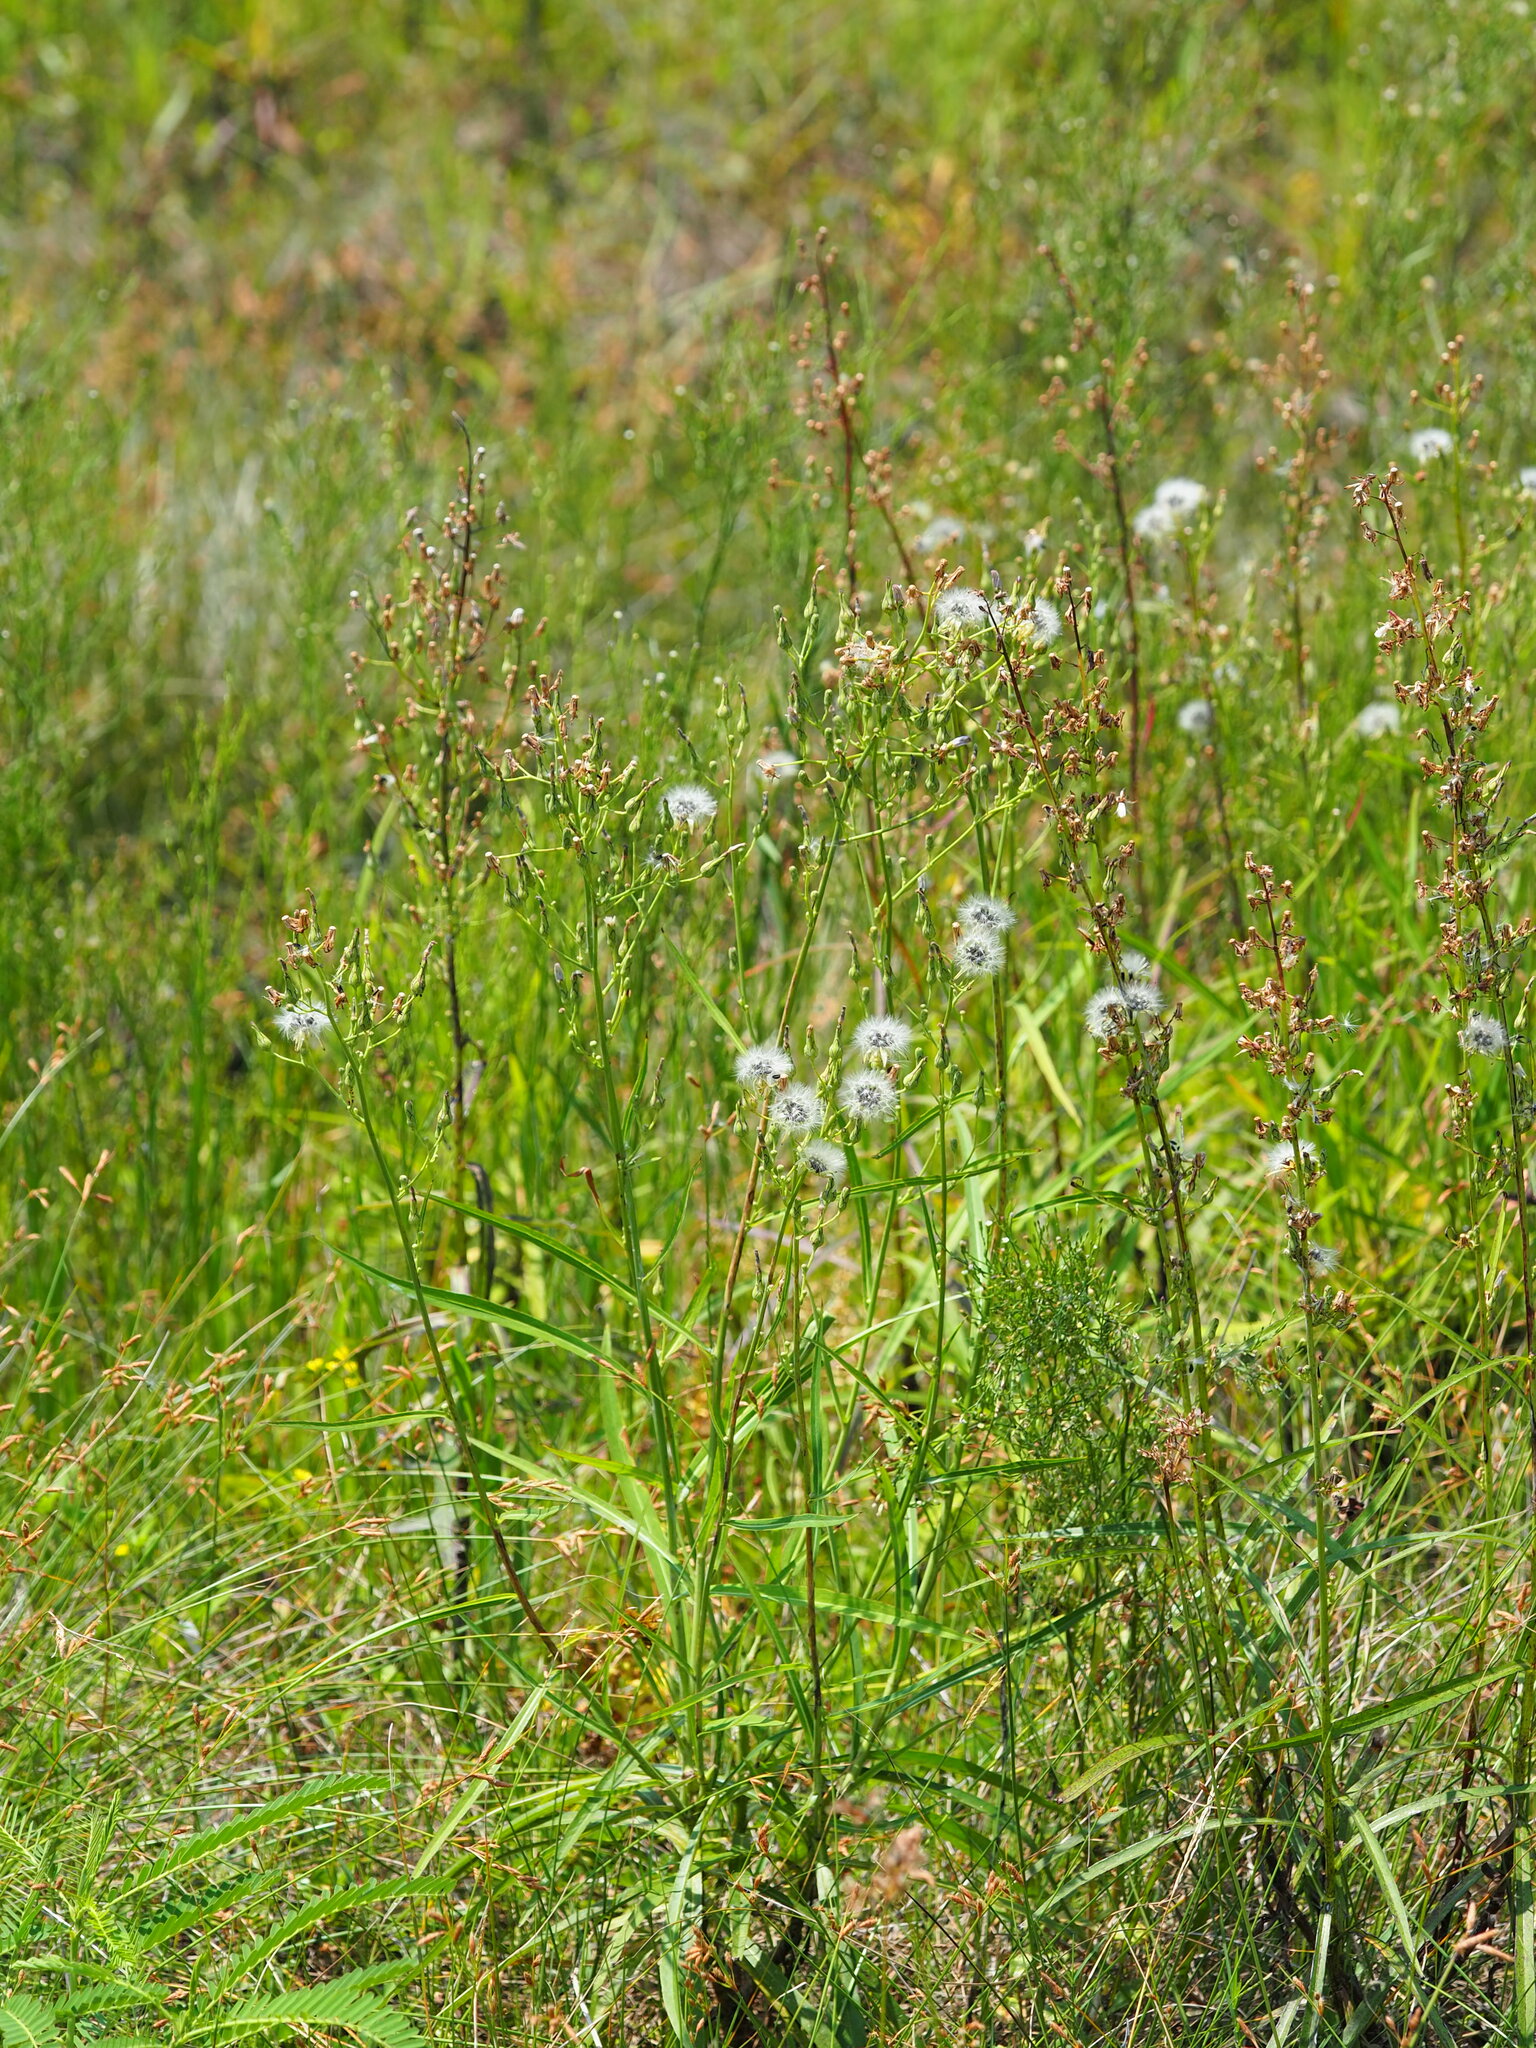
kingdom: Plantae
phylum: Tracheophyta
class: Magnoliopsida
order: Asterales
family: Asteraceae
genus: Lactuca
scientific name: Lactuca indica
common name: Wild lettuce
